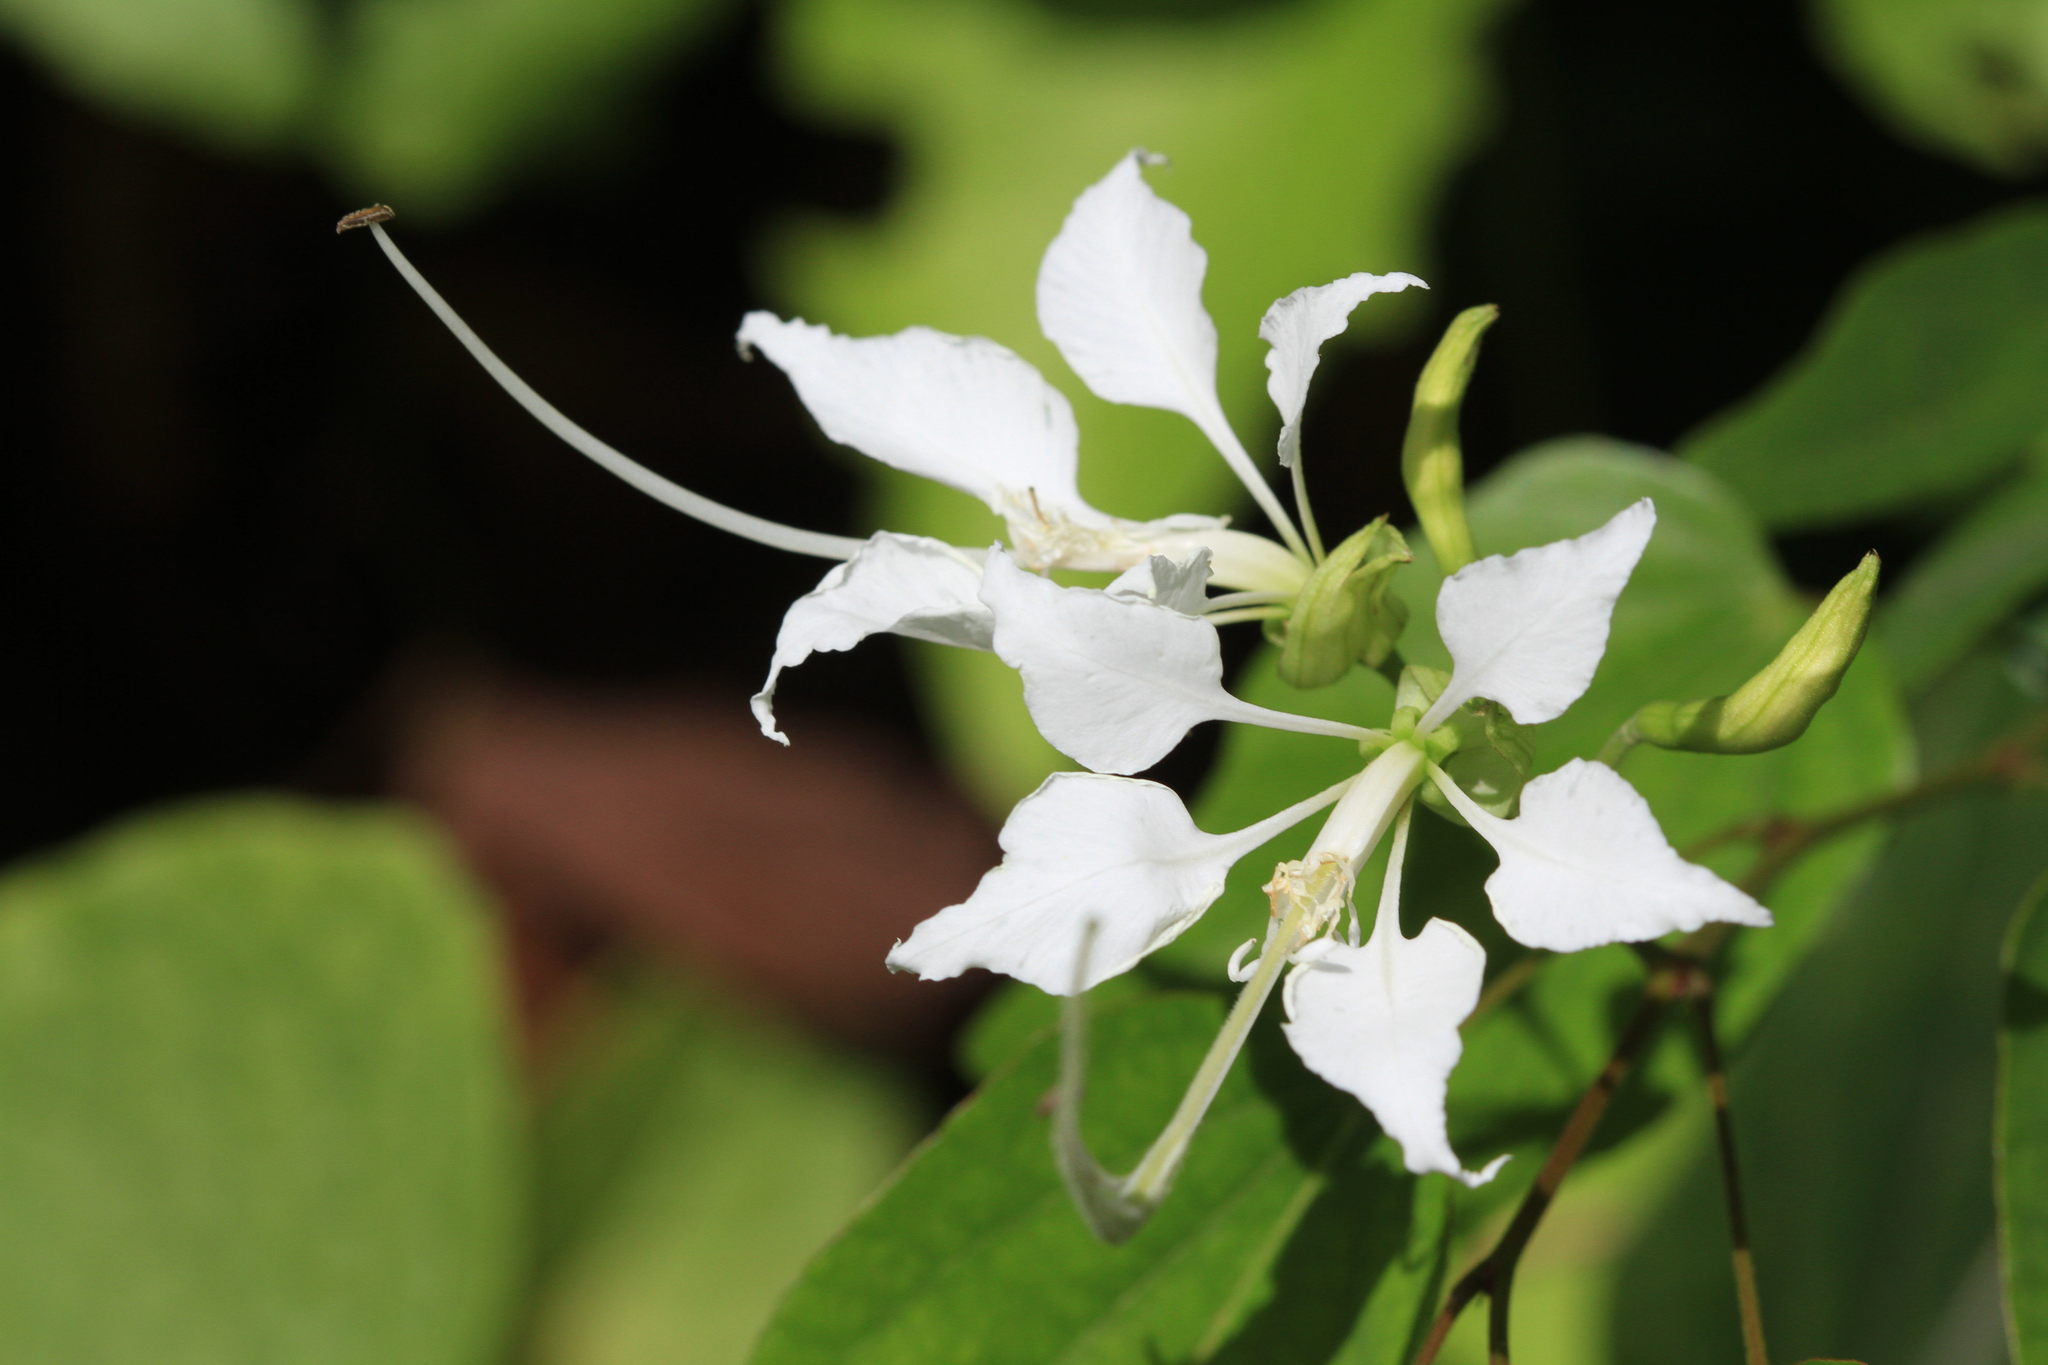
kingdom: Plantae
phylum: Tracheophyta
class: Magnoliopsida
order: Fabales
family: Fabaceae
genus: Bauhinia
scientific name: Bauhinia divaricata
